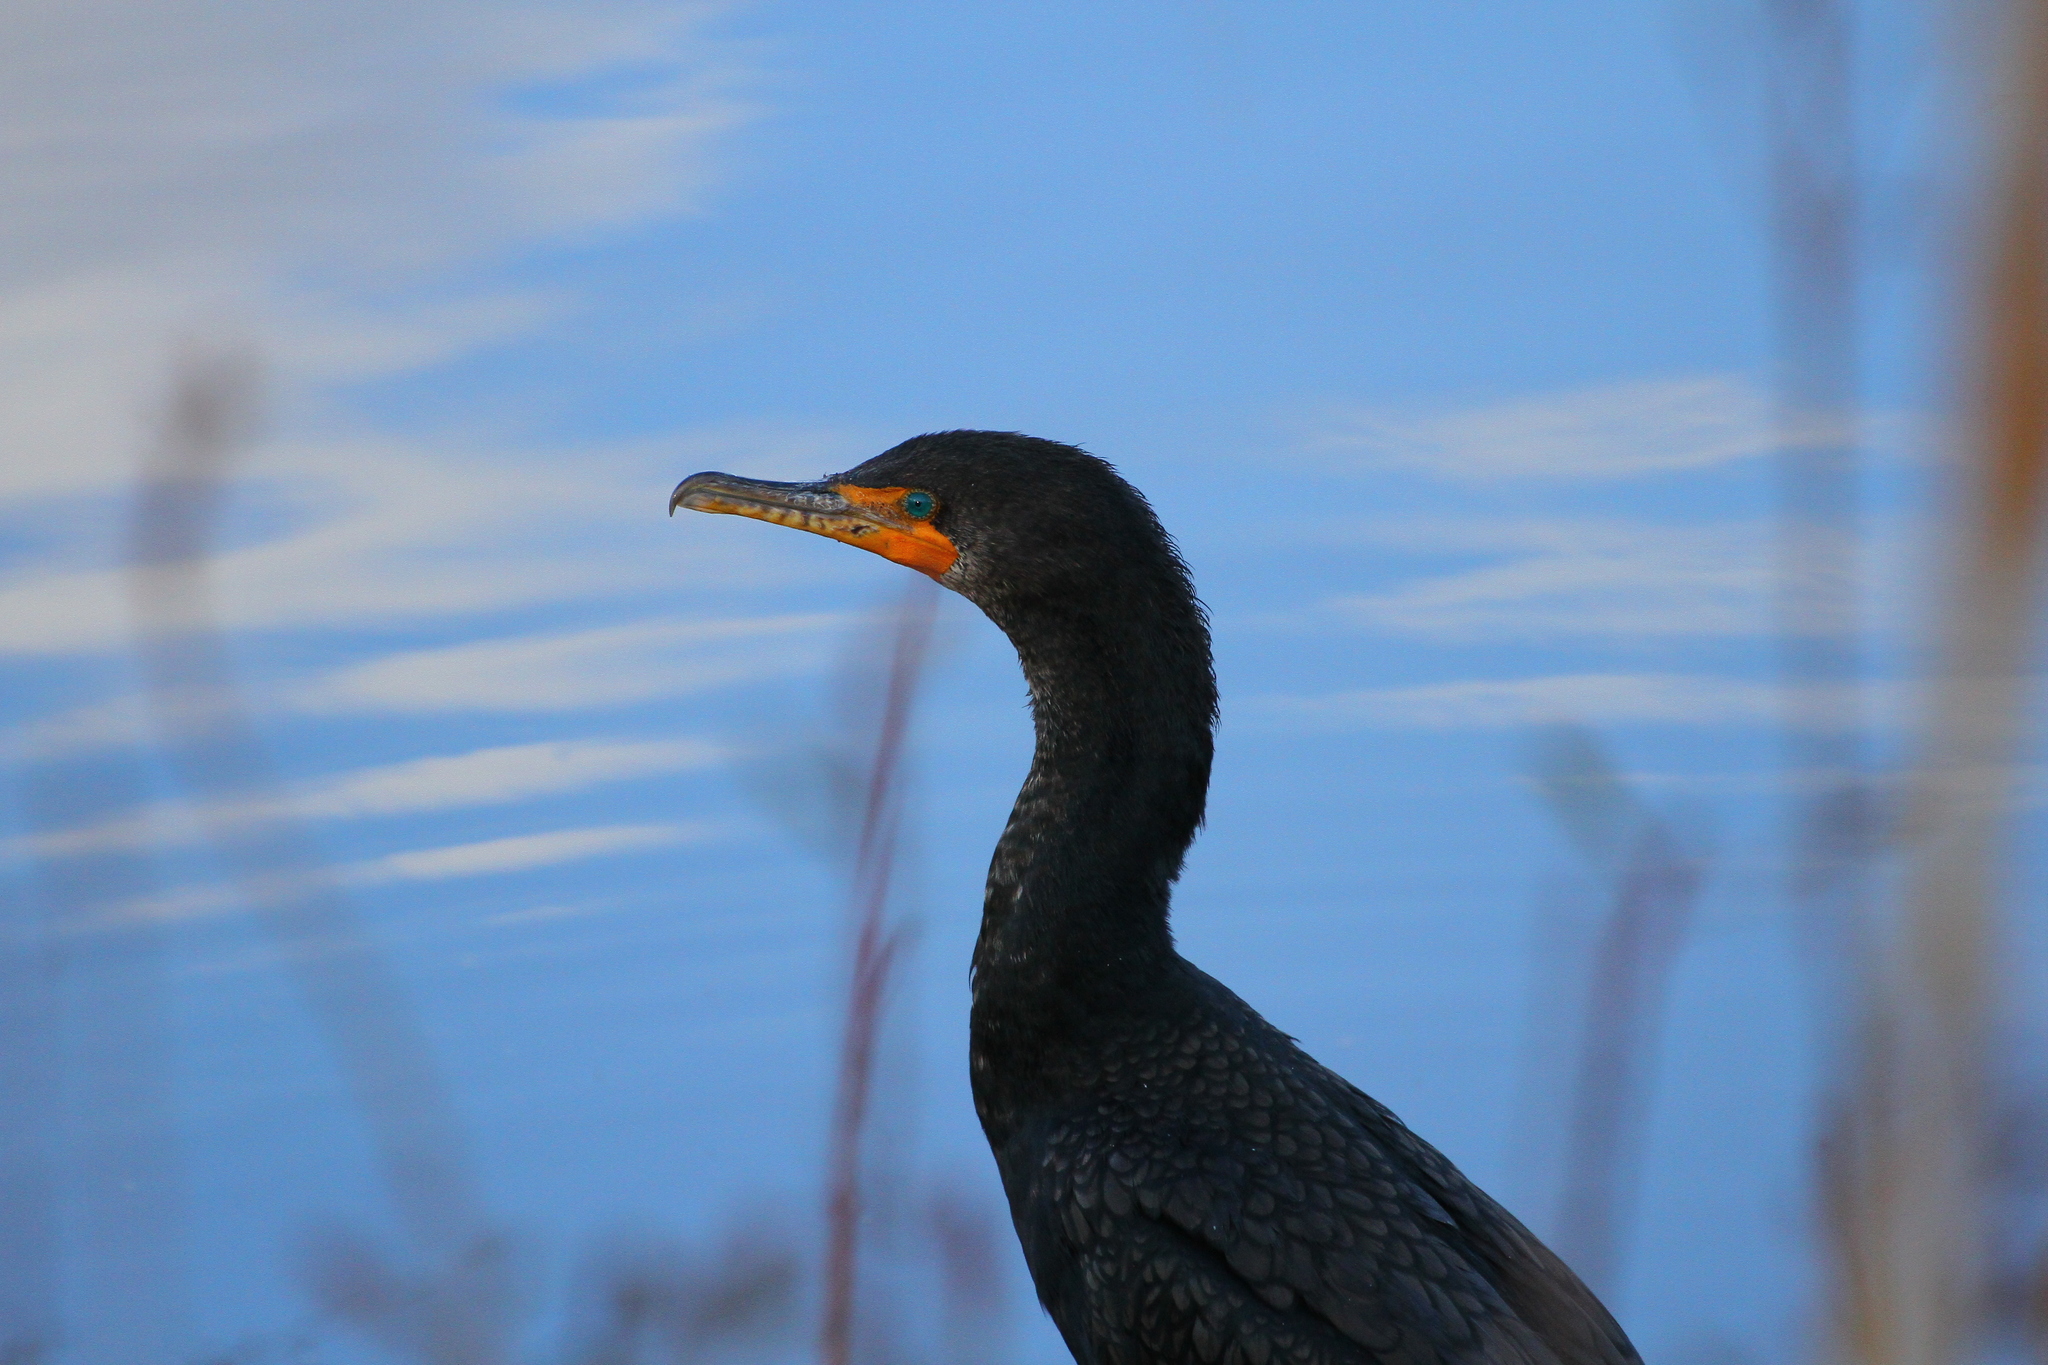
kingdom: Animalia
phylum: Chordata
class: Aves
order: Suliformes
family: Phalacrocoracidae
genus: Phalacrocorax
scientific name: Phalacrocorax auritus
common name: Double-crested cormorant
